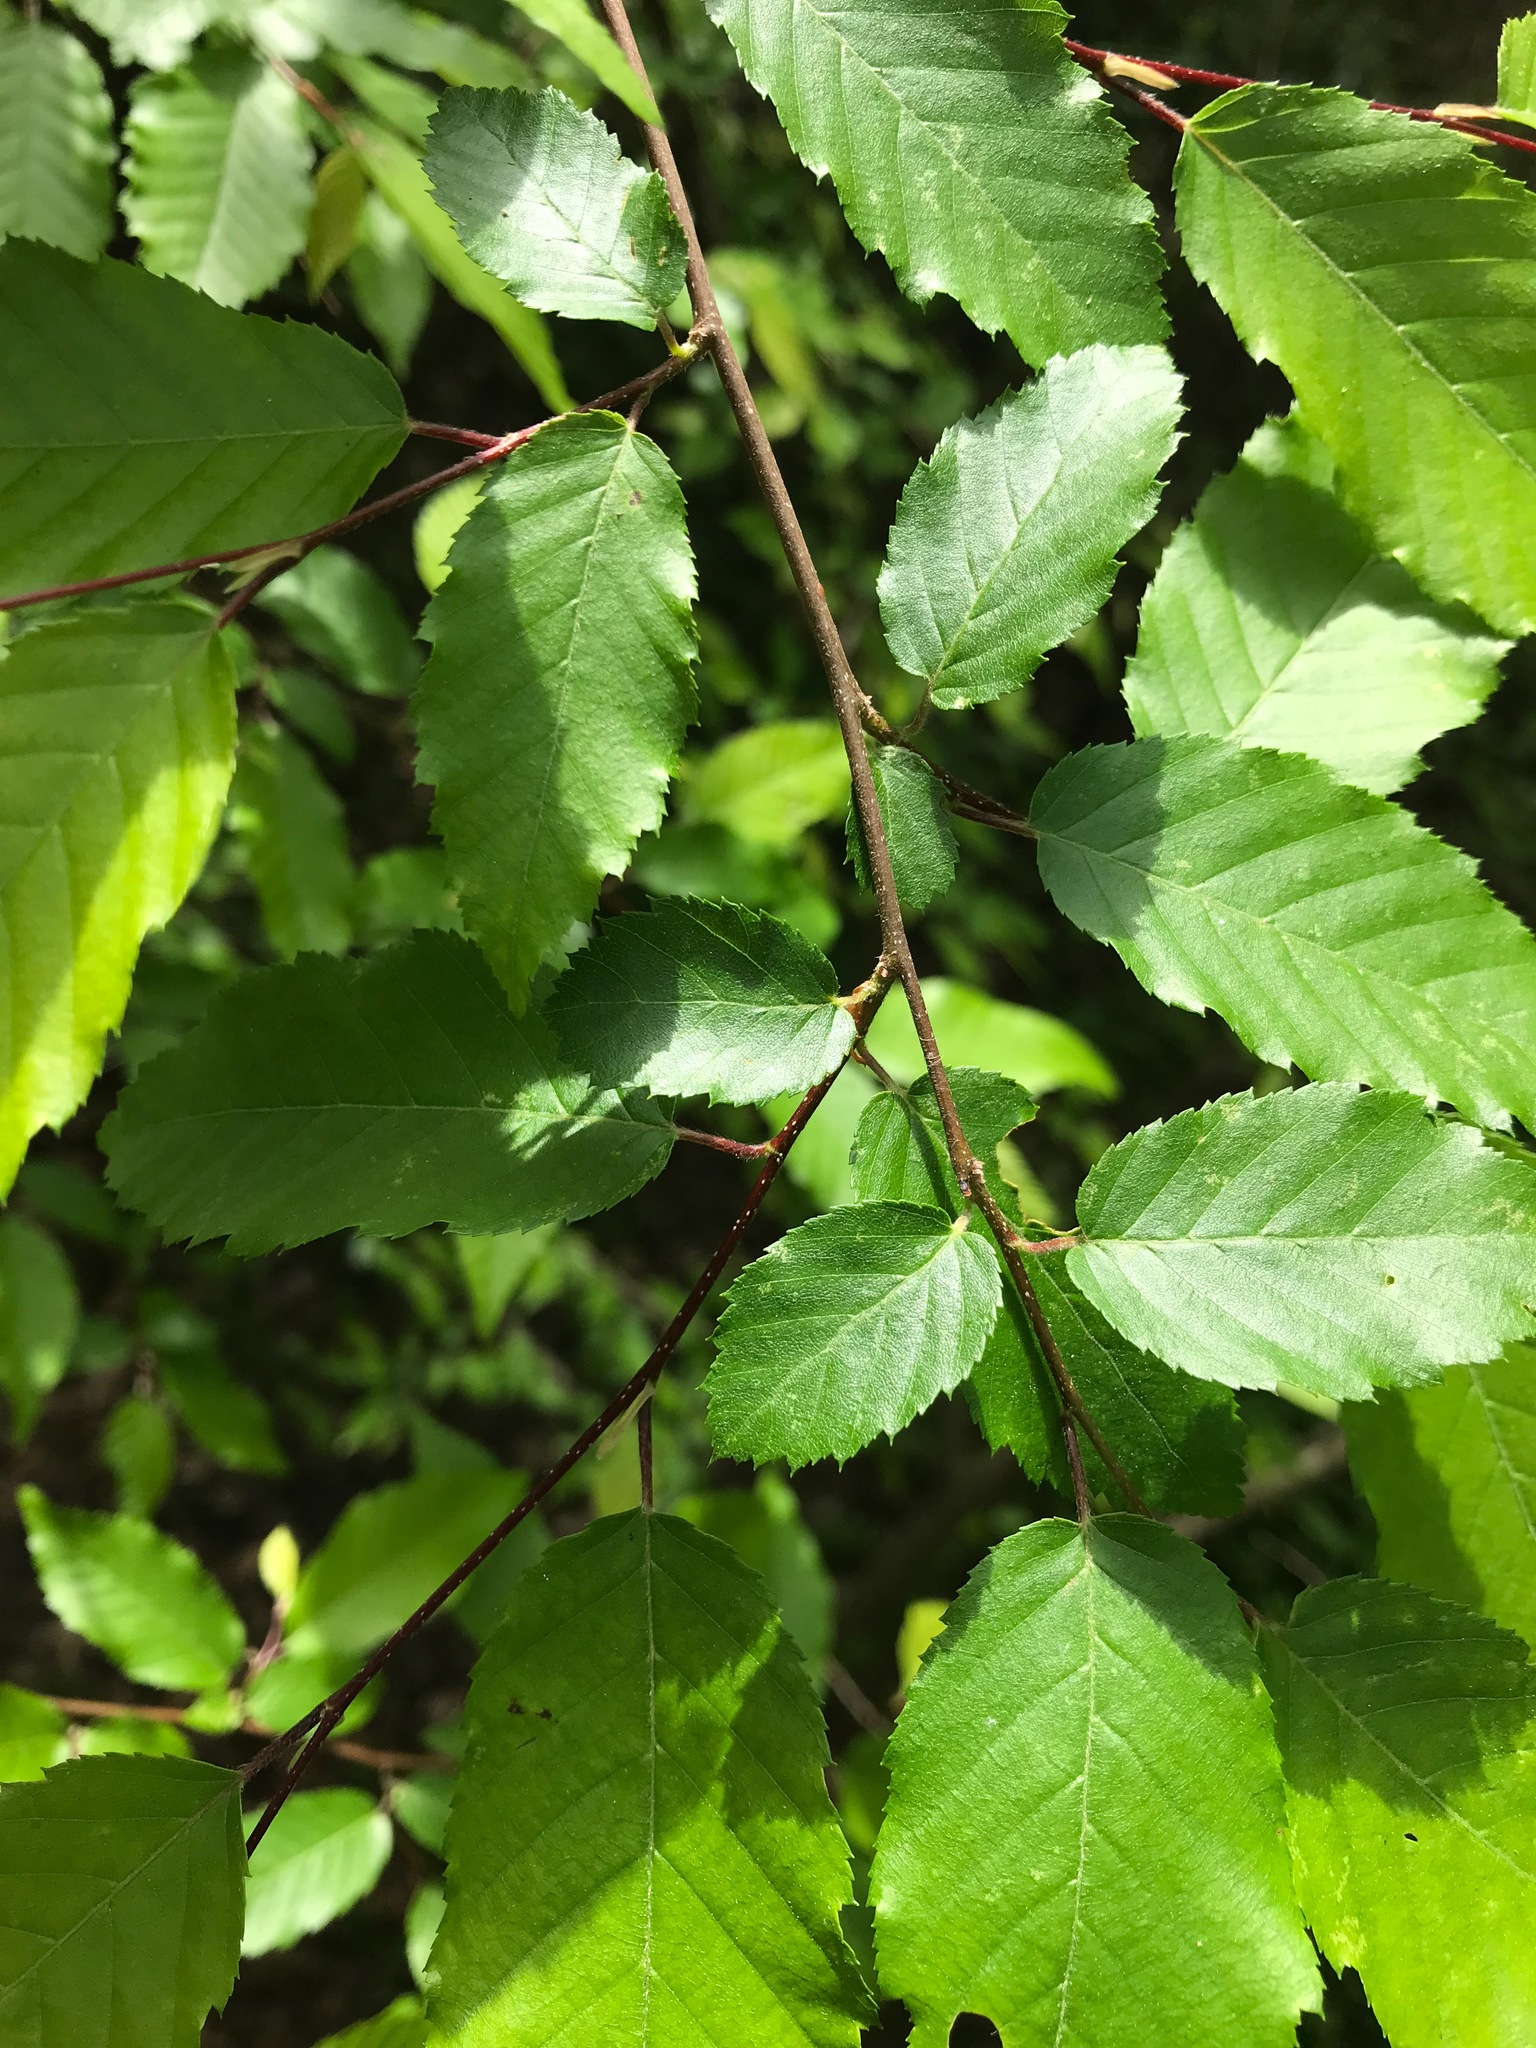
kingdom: Plantae
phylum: Tracheophyta
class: Magnoliopsida
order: Fagales
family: Betulaceae
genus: Carpinus
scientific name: Carpinus caroliniana
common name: American hornbeam
